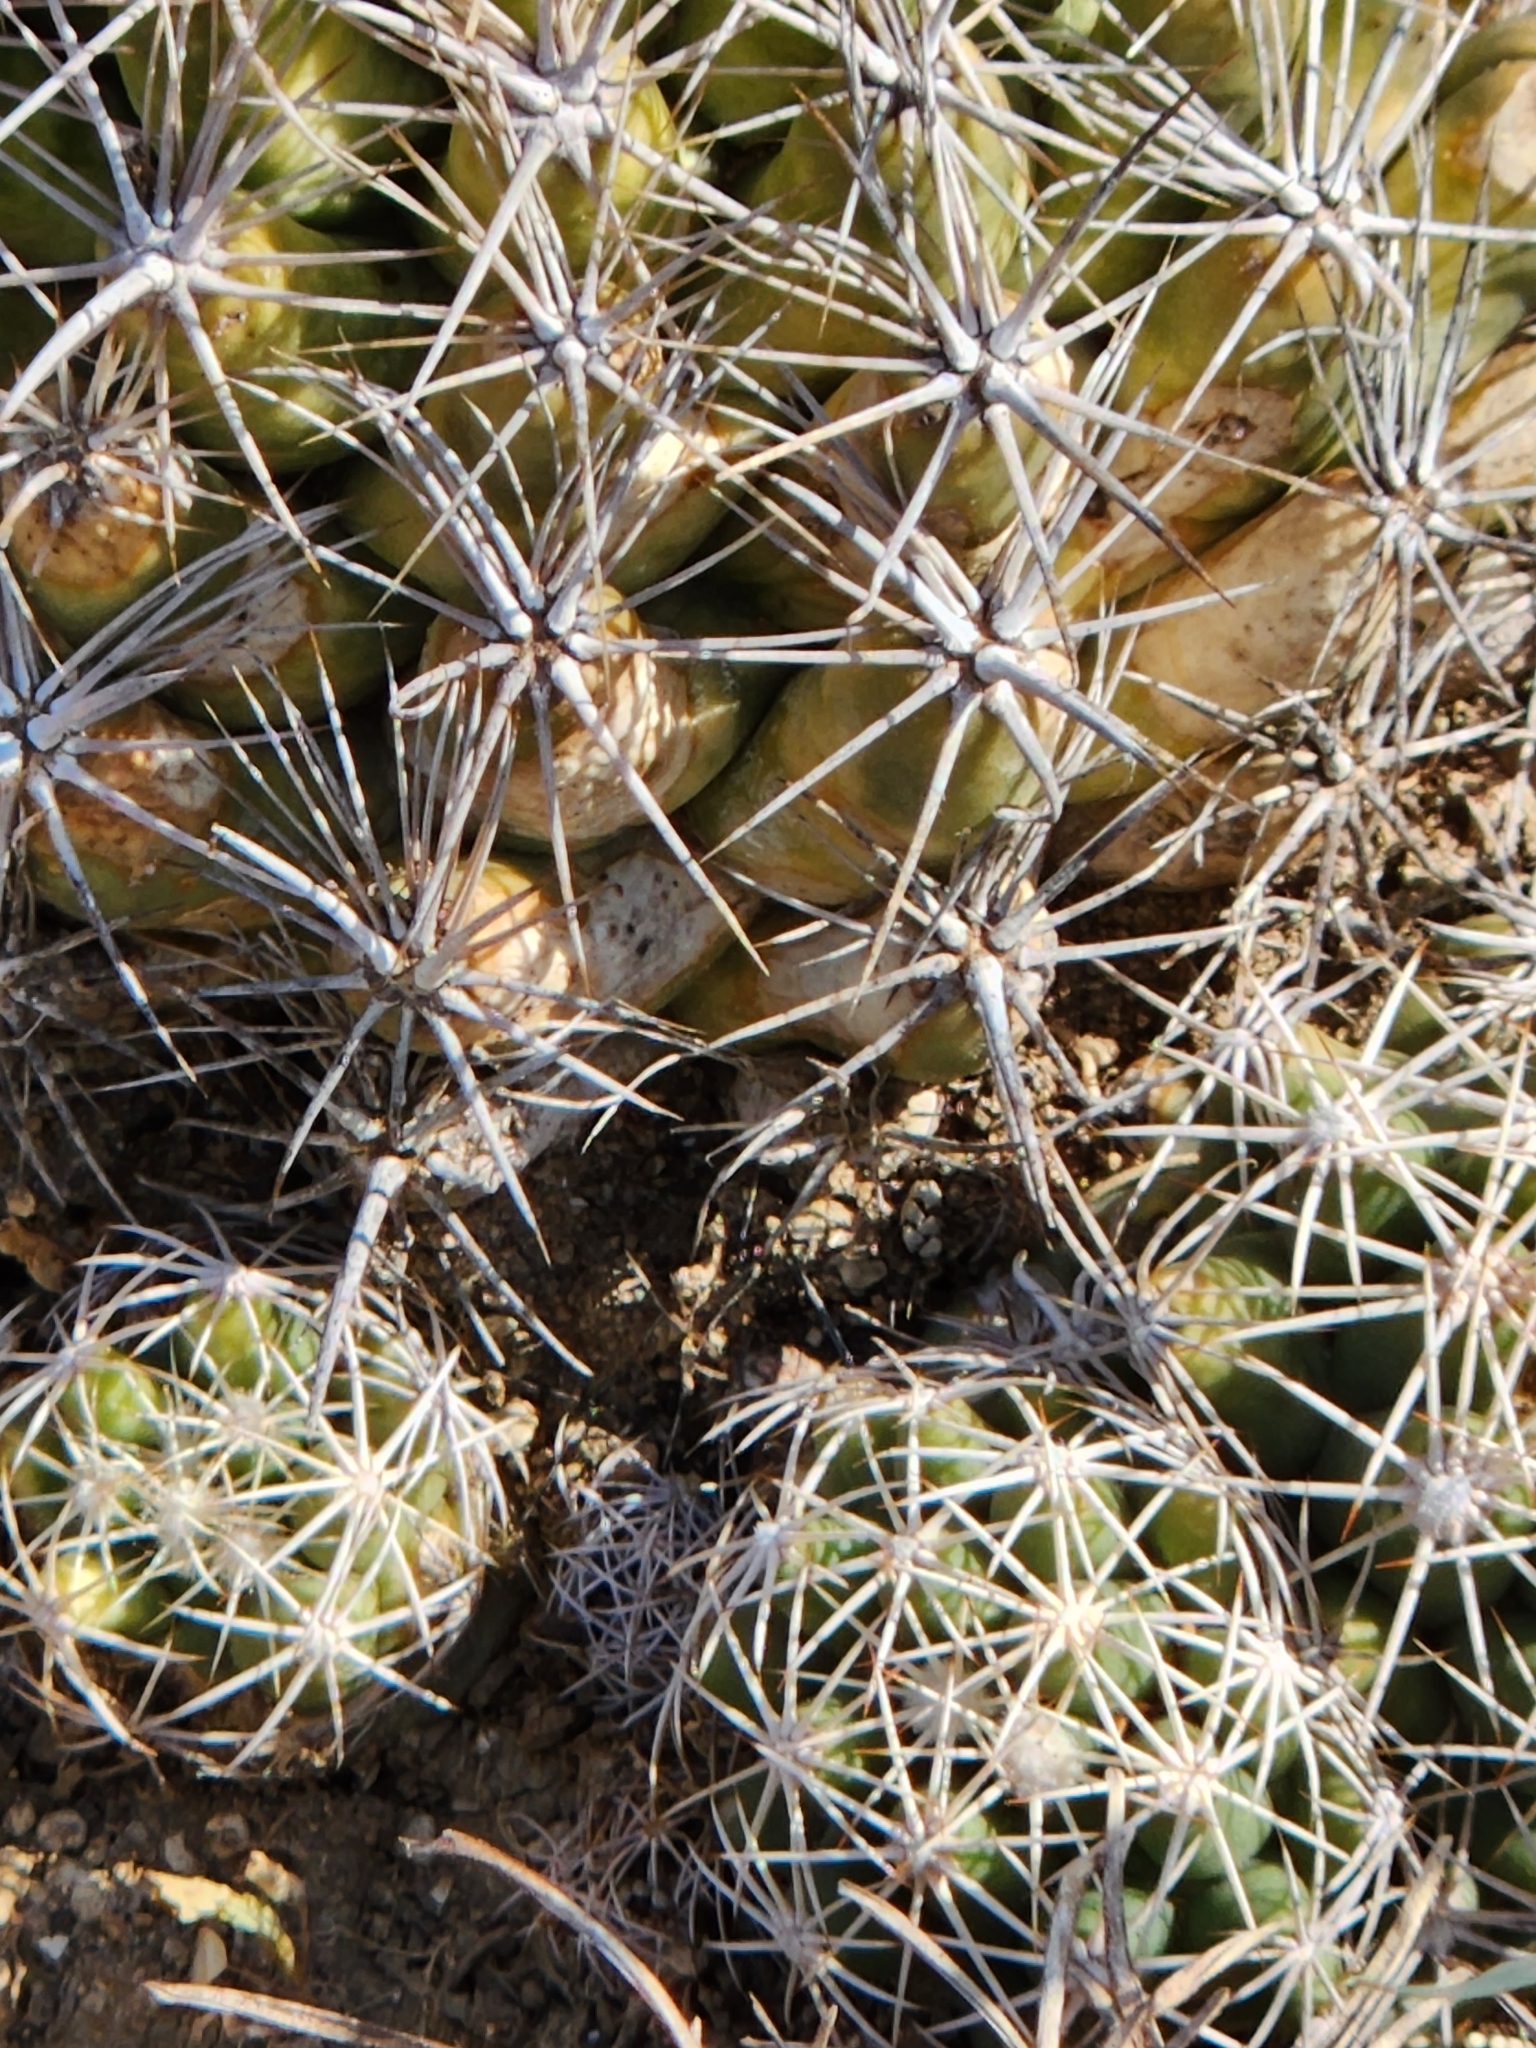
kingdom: Plantae
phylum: Tracheophyta
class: Magnoliopsida
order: Caryophyllales
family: Cactaceae
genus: Coryphantha
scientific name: Coryphantha sulcata
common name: Finger cactus
